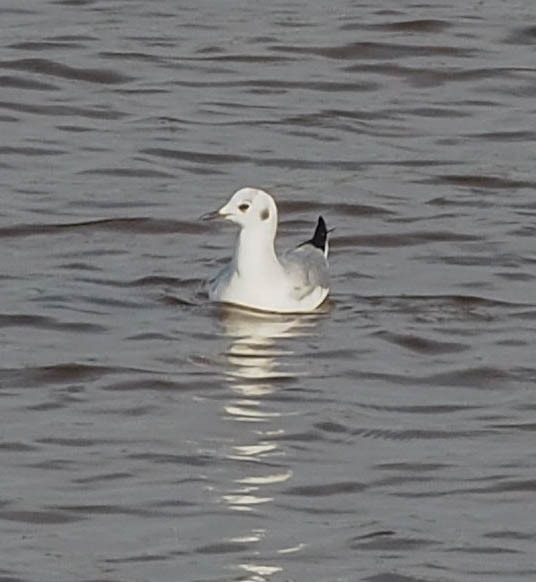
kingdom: Animalia
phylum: Chordata
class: Aves
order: Charadriiformes
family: Laridae
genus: Chroicocephalus
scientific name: Chroicocephalus philadelphia
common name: Bonaparte's gull
